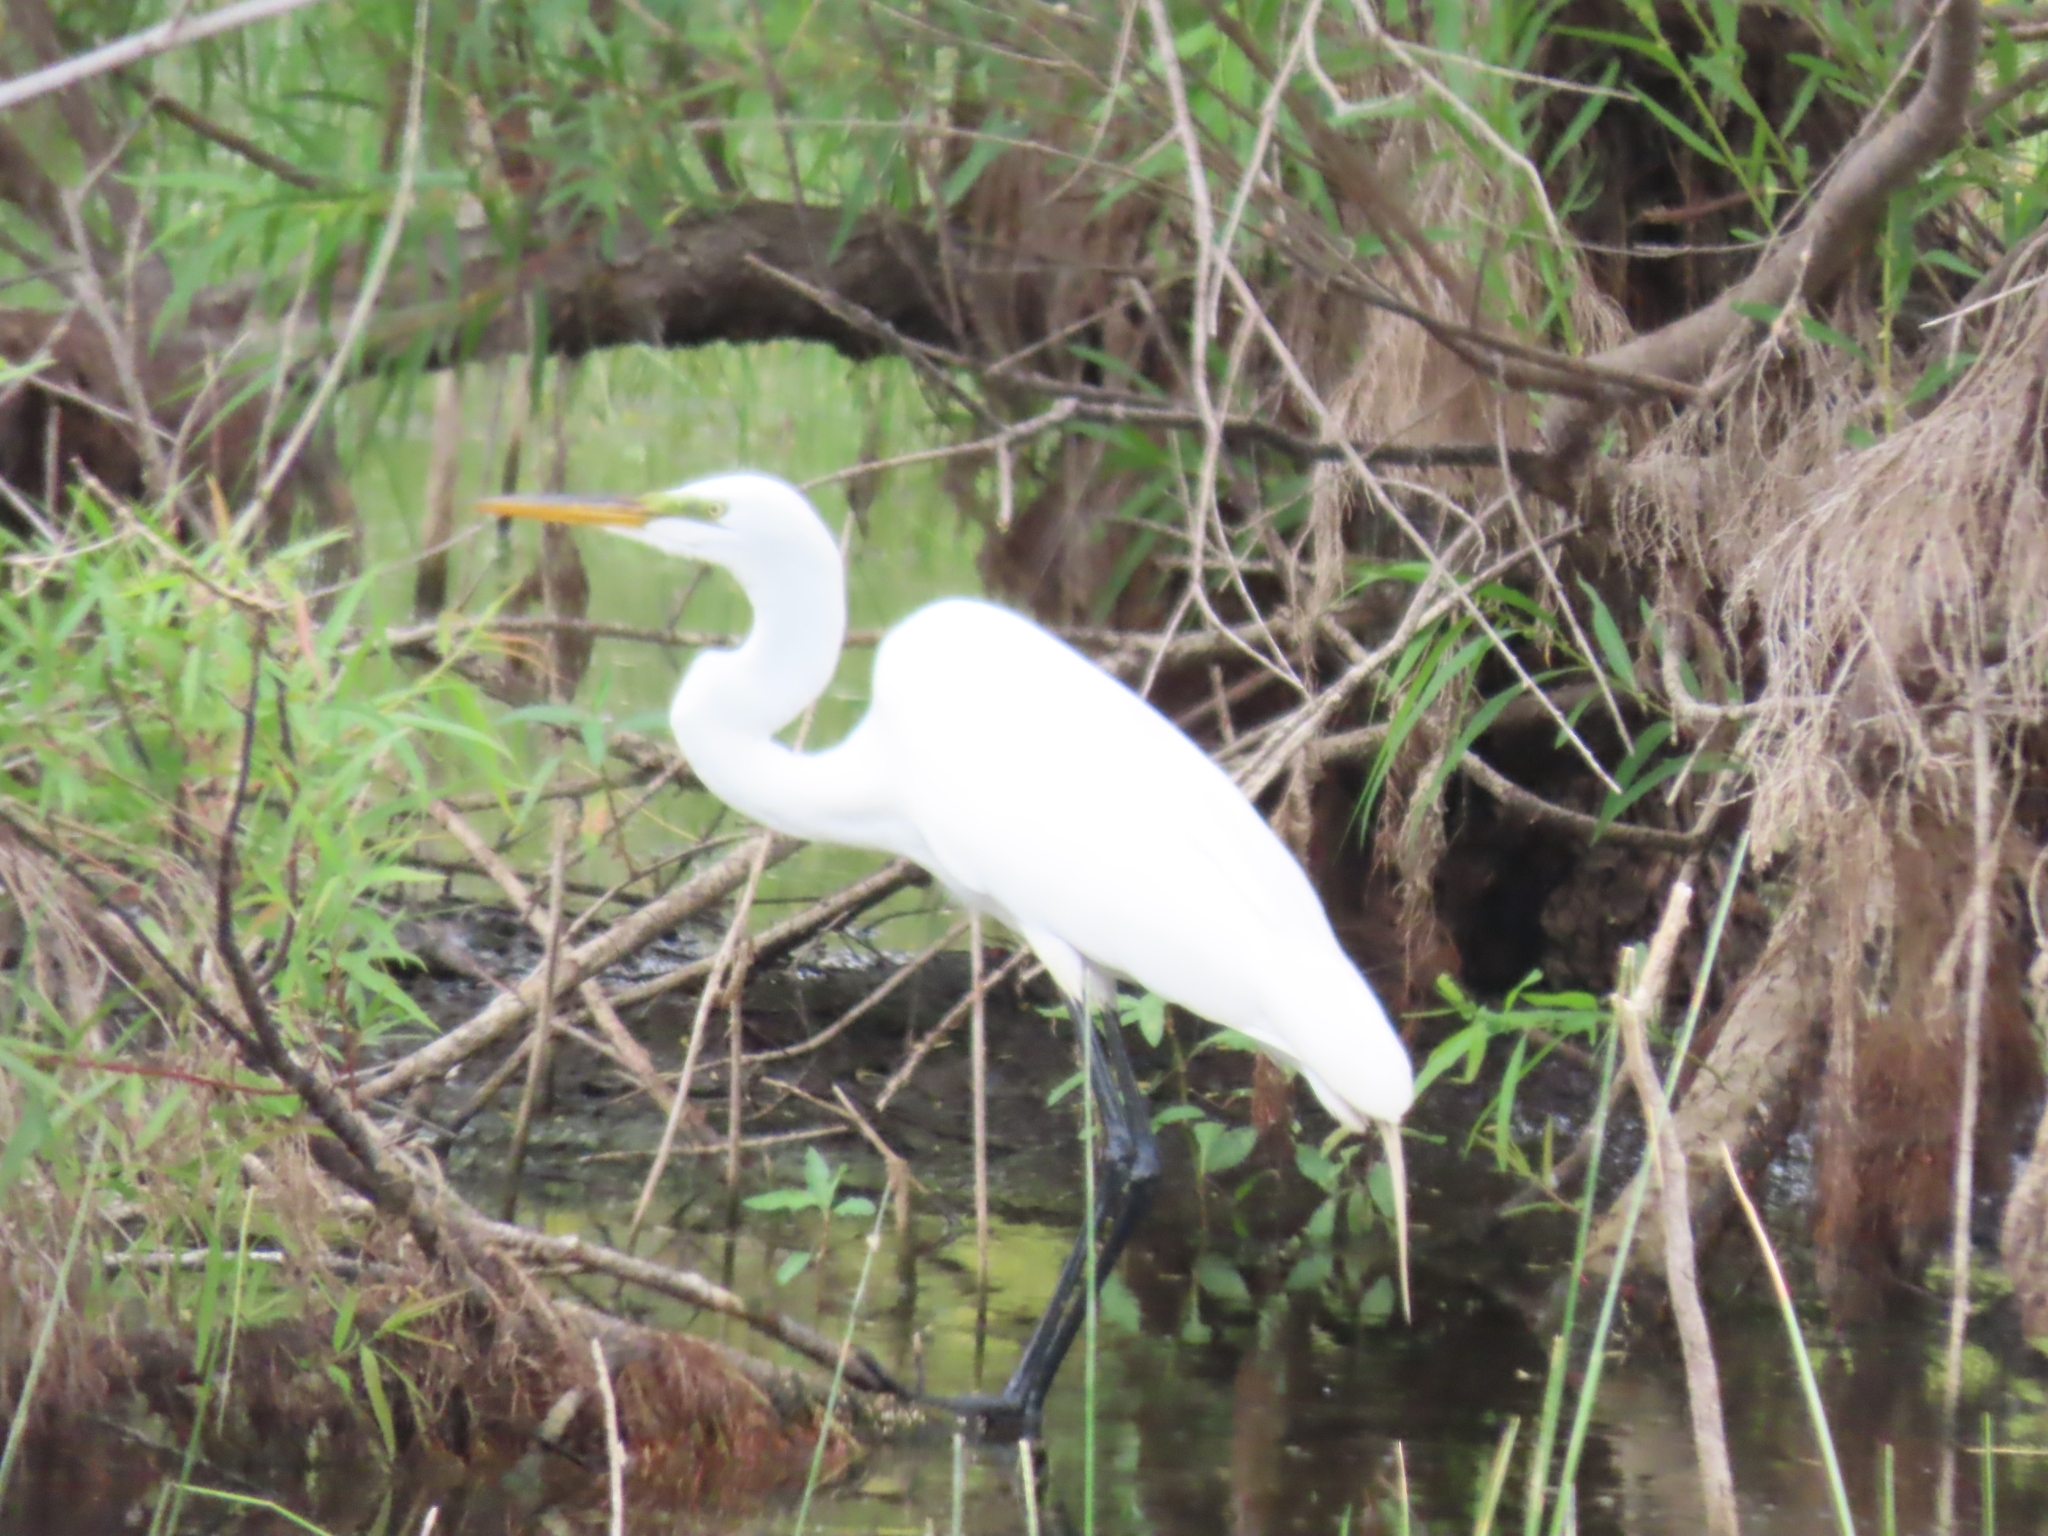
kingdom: Animalia
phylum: Chordata
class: Aves
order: Pelecaniformes
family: Ardeidae
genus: Ardea
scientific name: Ardea alba
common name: Great egret
